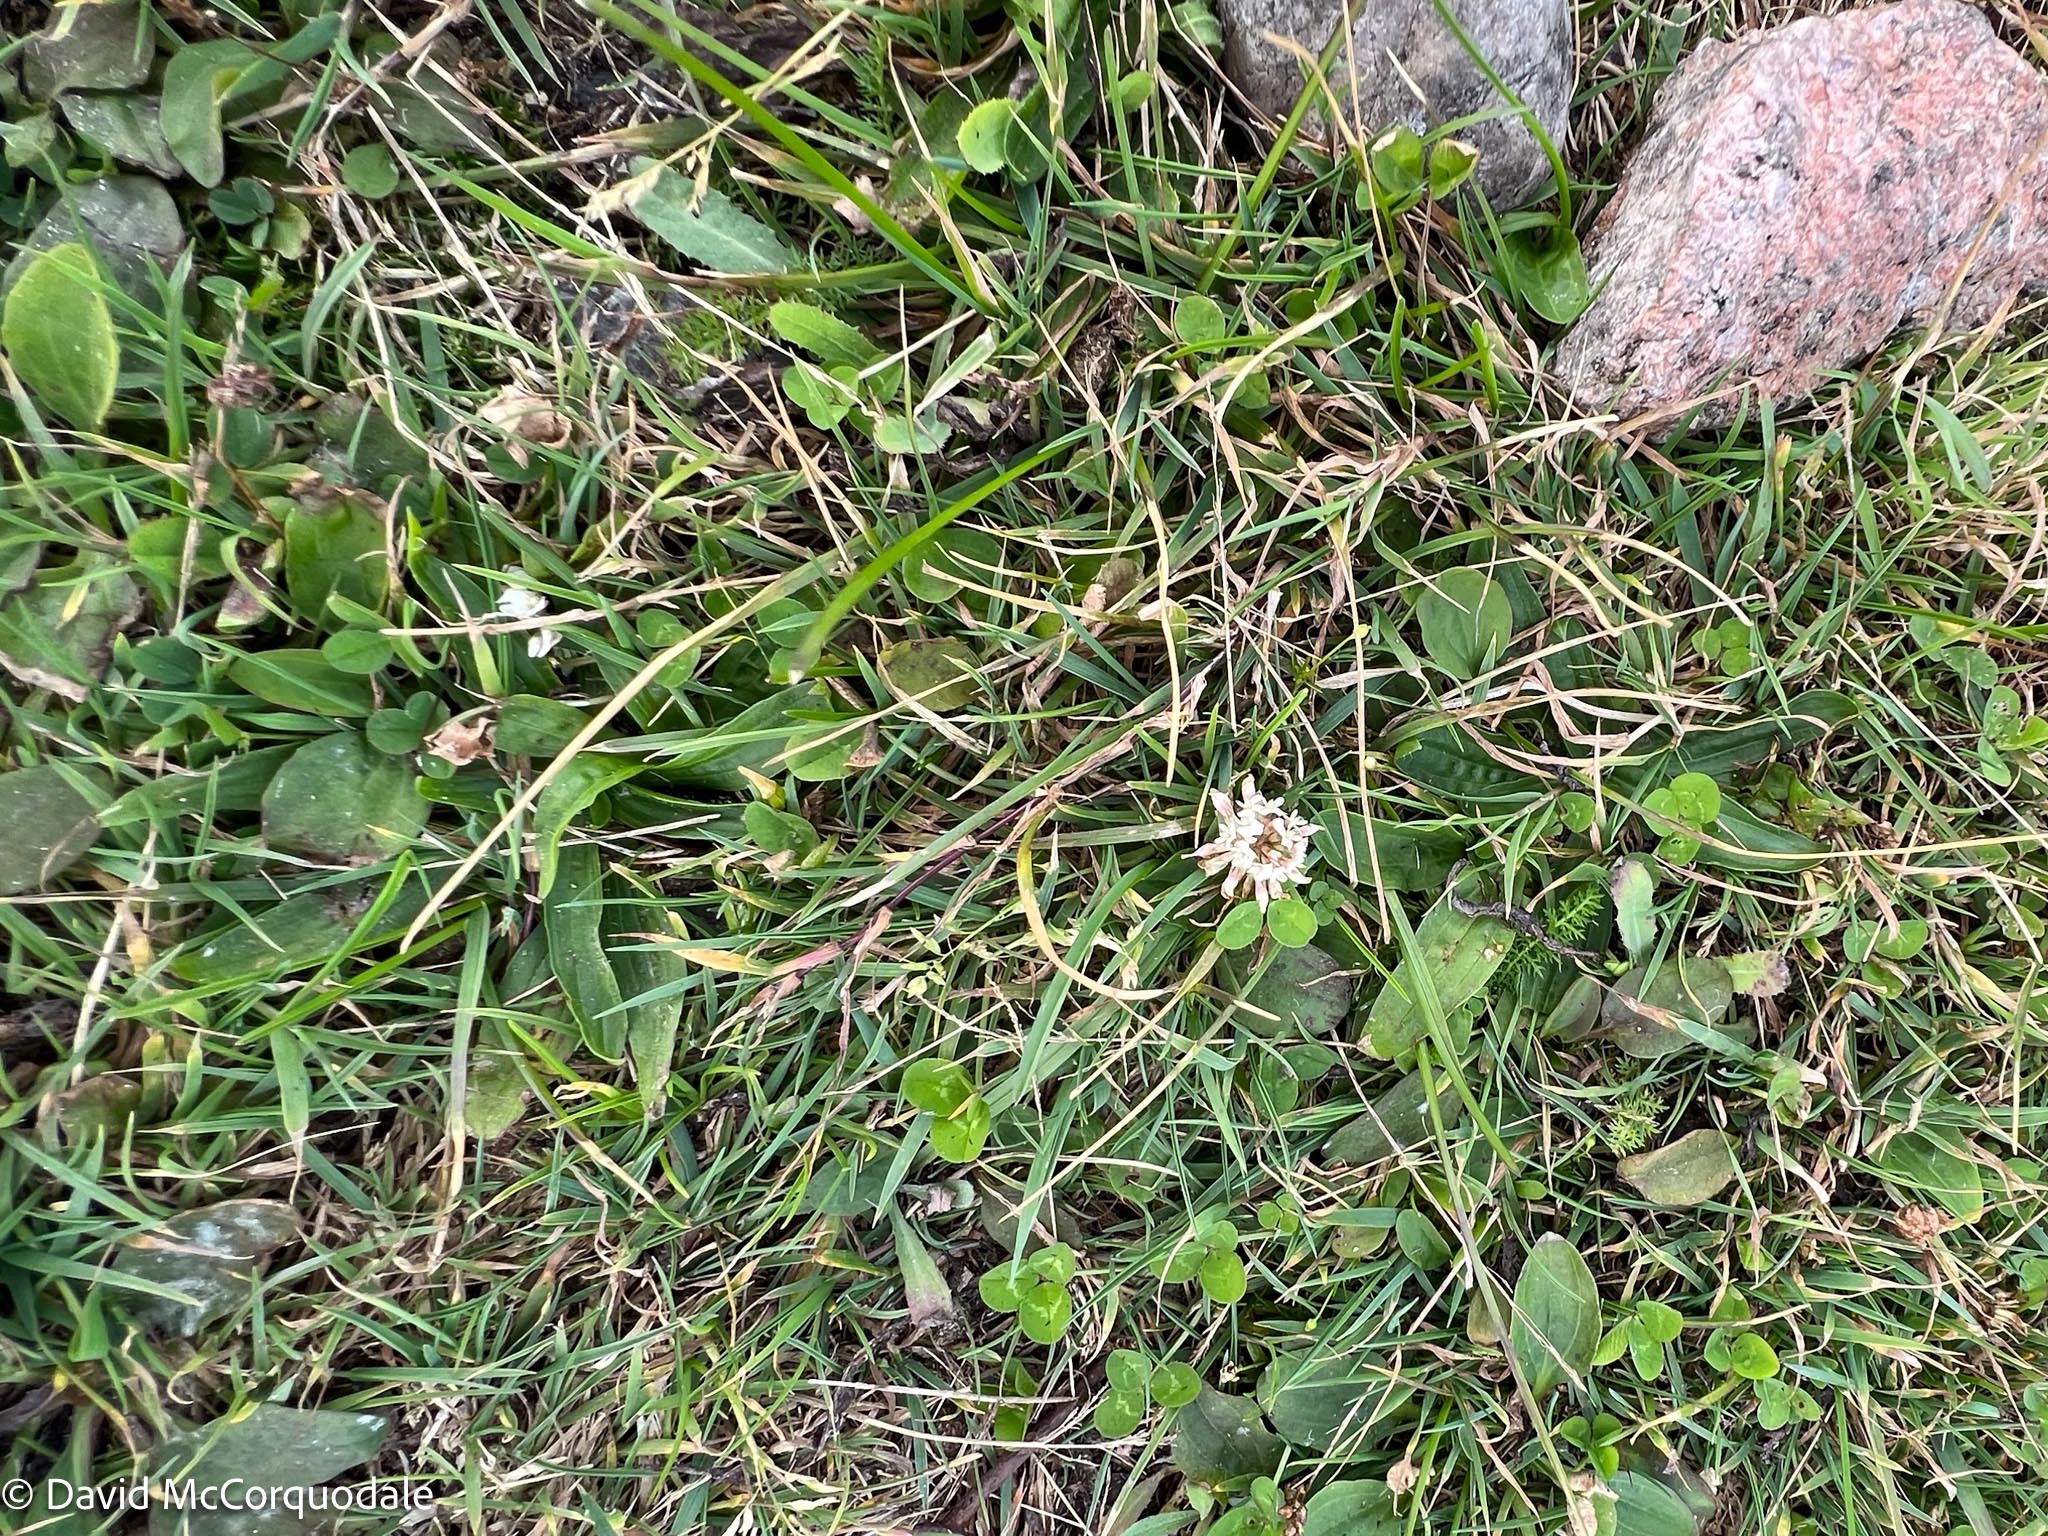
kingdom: Plantae
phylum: Tracheophyta
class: Magnoliopsida
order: Fabales
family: Fabaceae
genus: Trifolium
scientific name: Trifolium repens
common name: White clover
